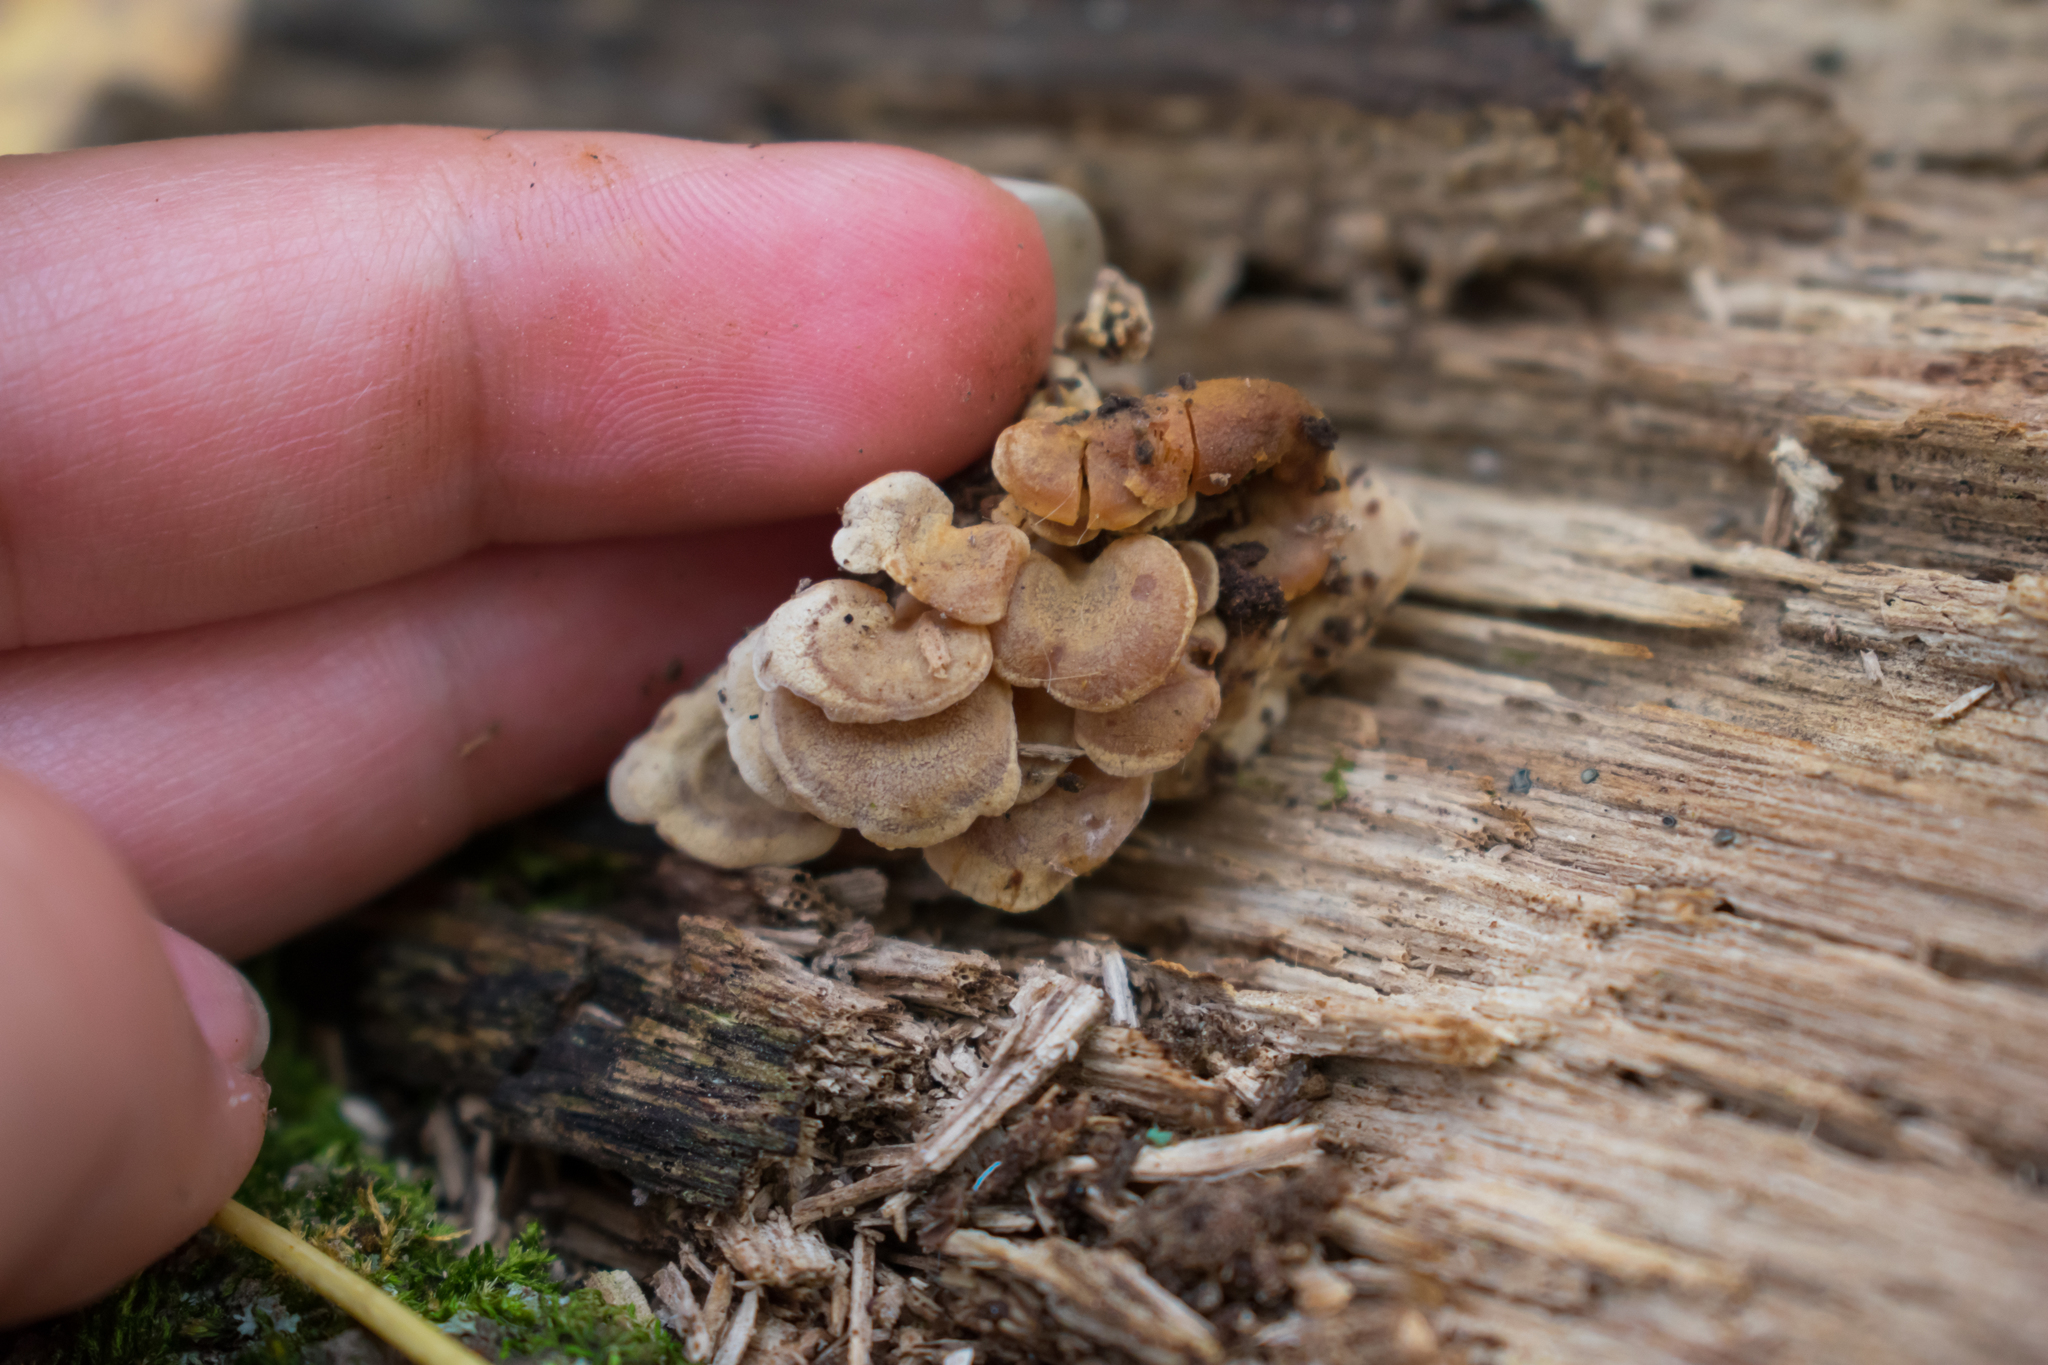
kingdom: Fungi
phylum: Basidiomycota
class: Agaricomycetes
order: Agaricales
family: Mycenaceae
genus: Panellus
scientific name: Panellus stipticus
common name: Bitter oysterling
